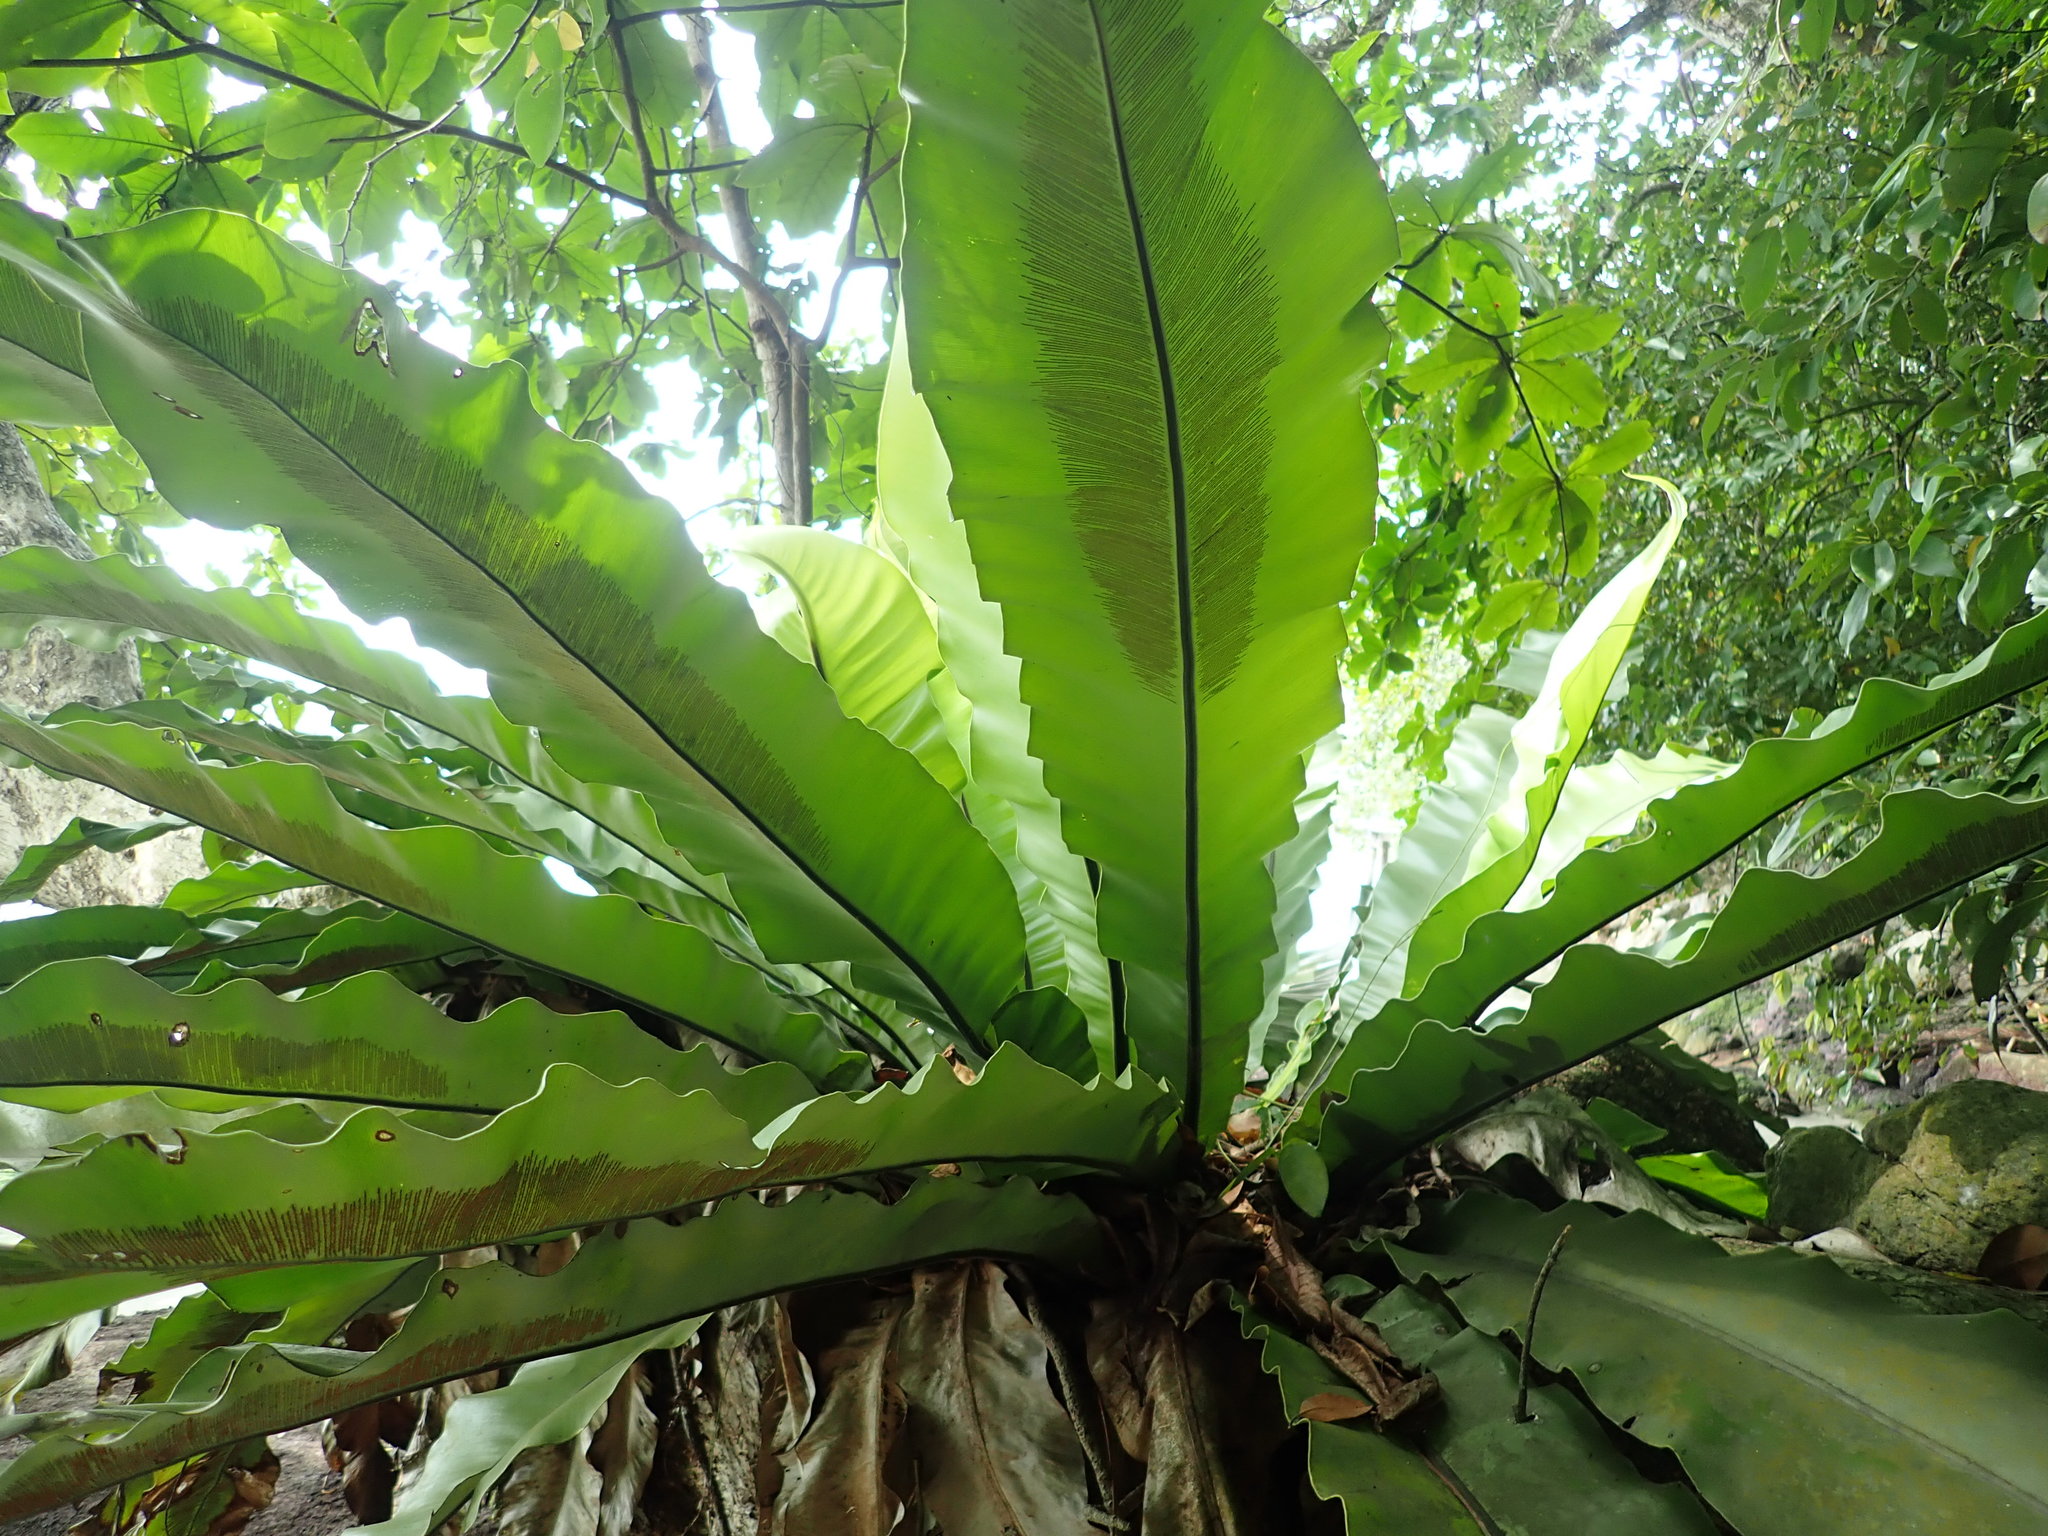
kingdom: Plantae
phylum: Tracheophyta
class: Polypodiopsida
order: Polypodiales
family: Aspleniaceae
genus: Asplenium
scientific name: Asplenium nidus
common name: Bird's-nest fern
